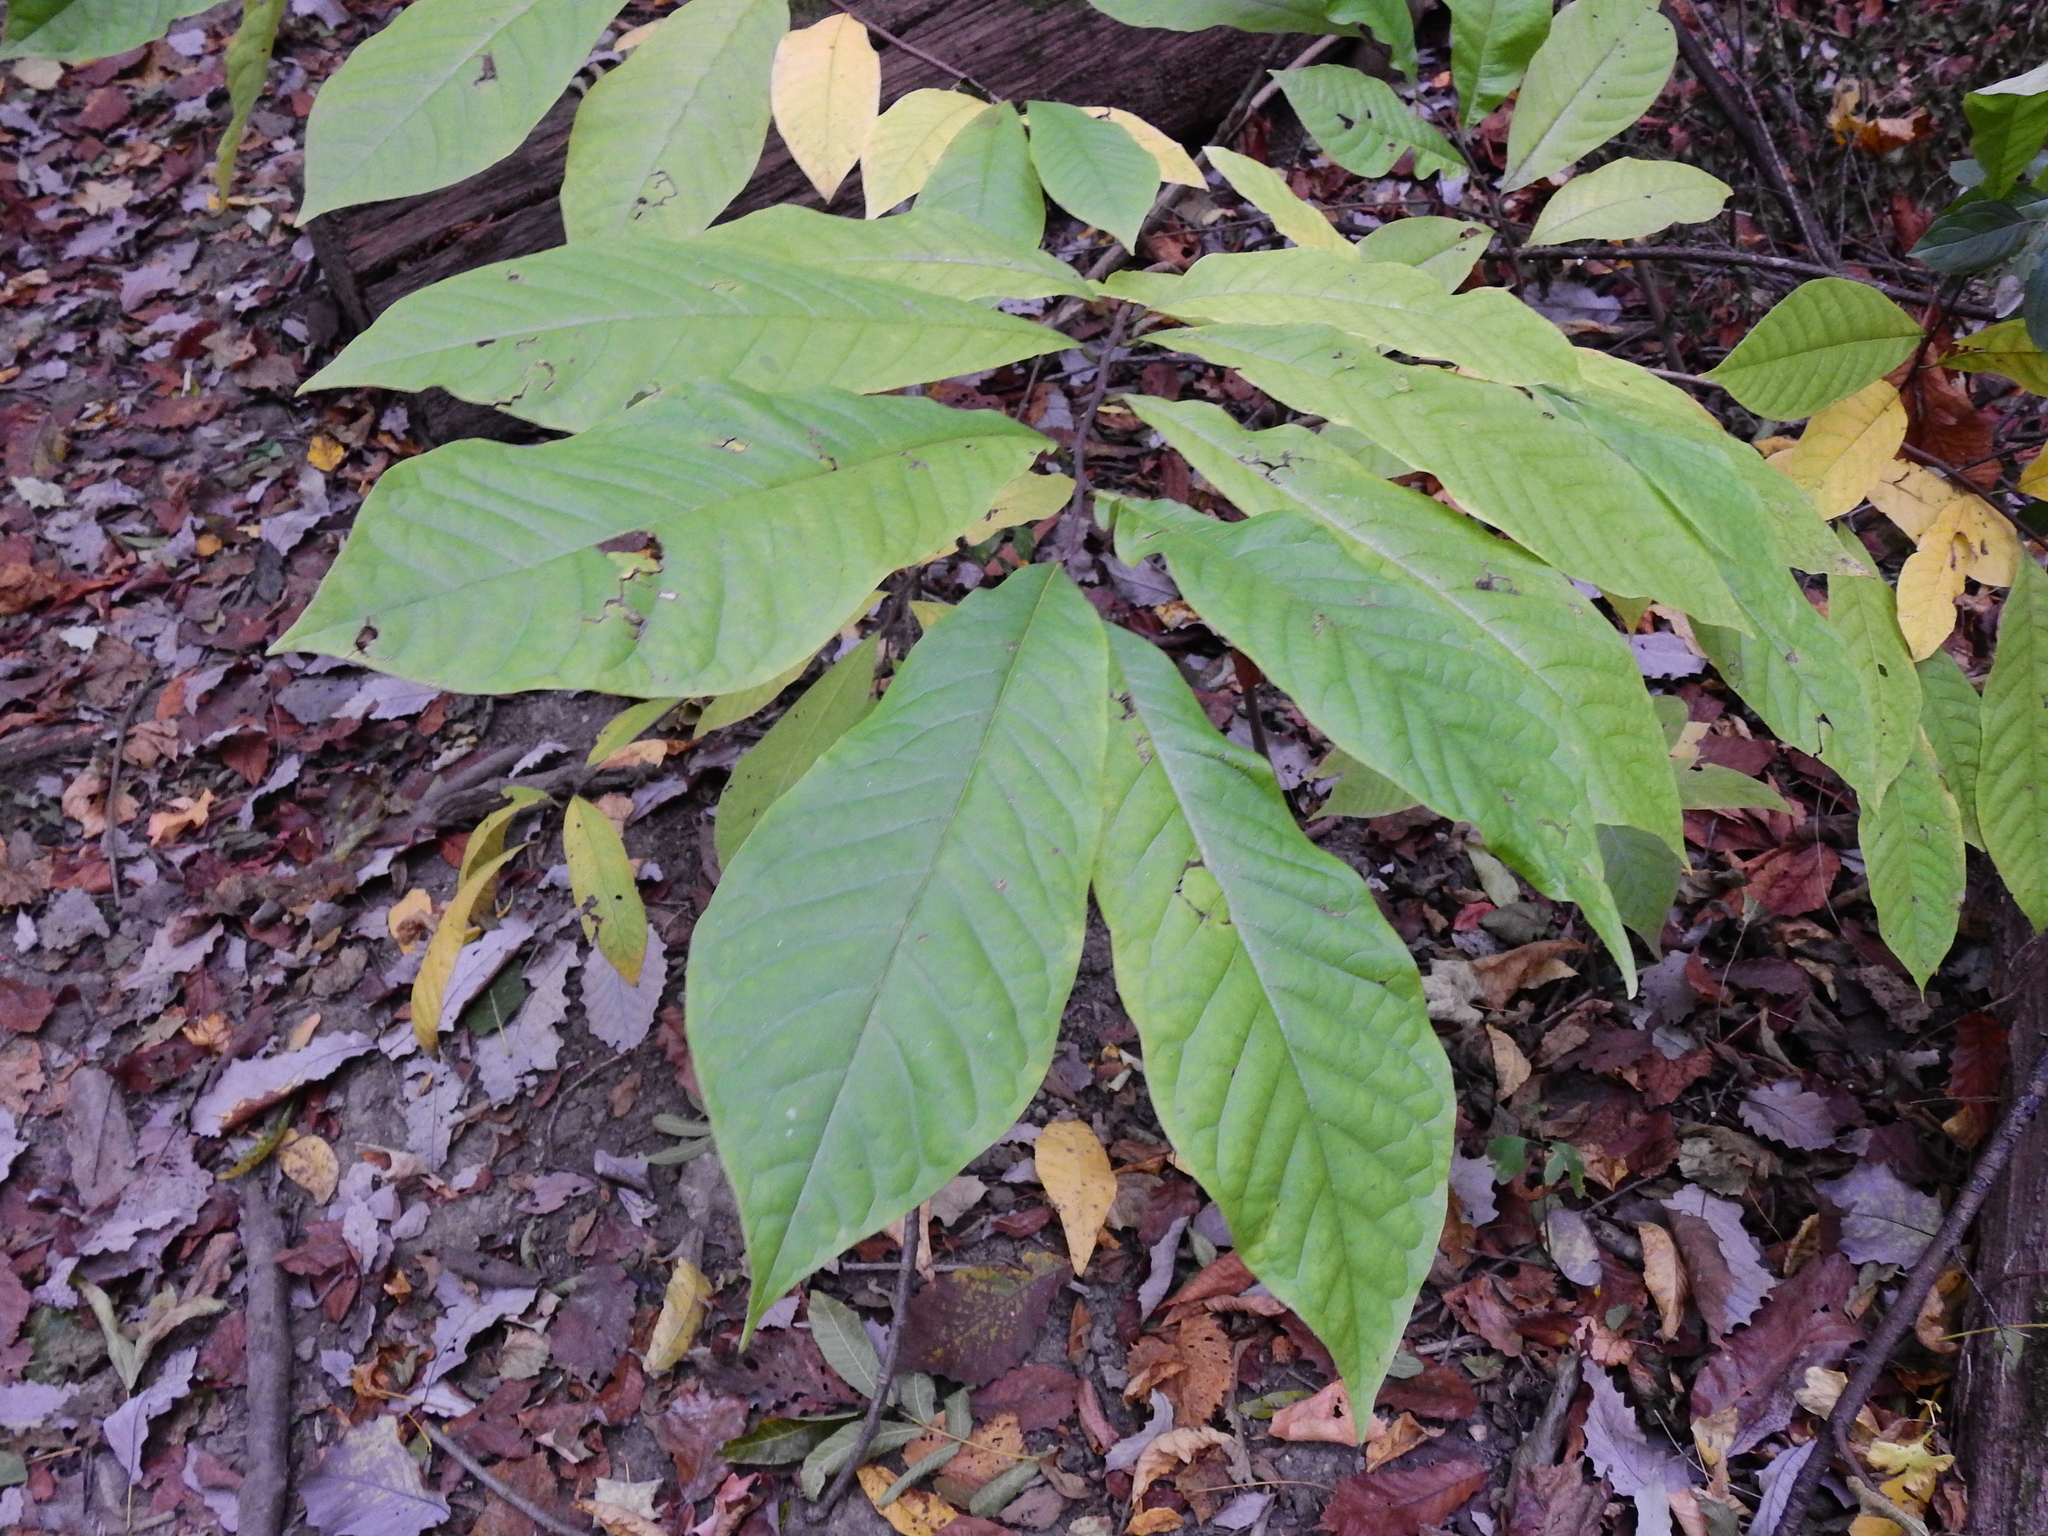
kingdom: Plantae
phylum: Tracheophyta
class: Magnoliopsida
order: Magnoliales
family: Annonaceae
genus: Asimina
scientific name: Asimina triloba
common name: Dog-banana
